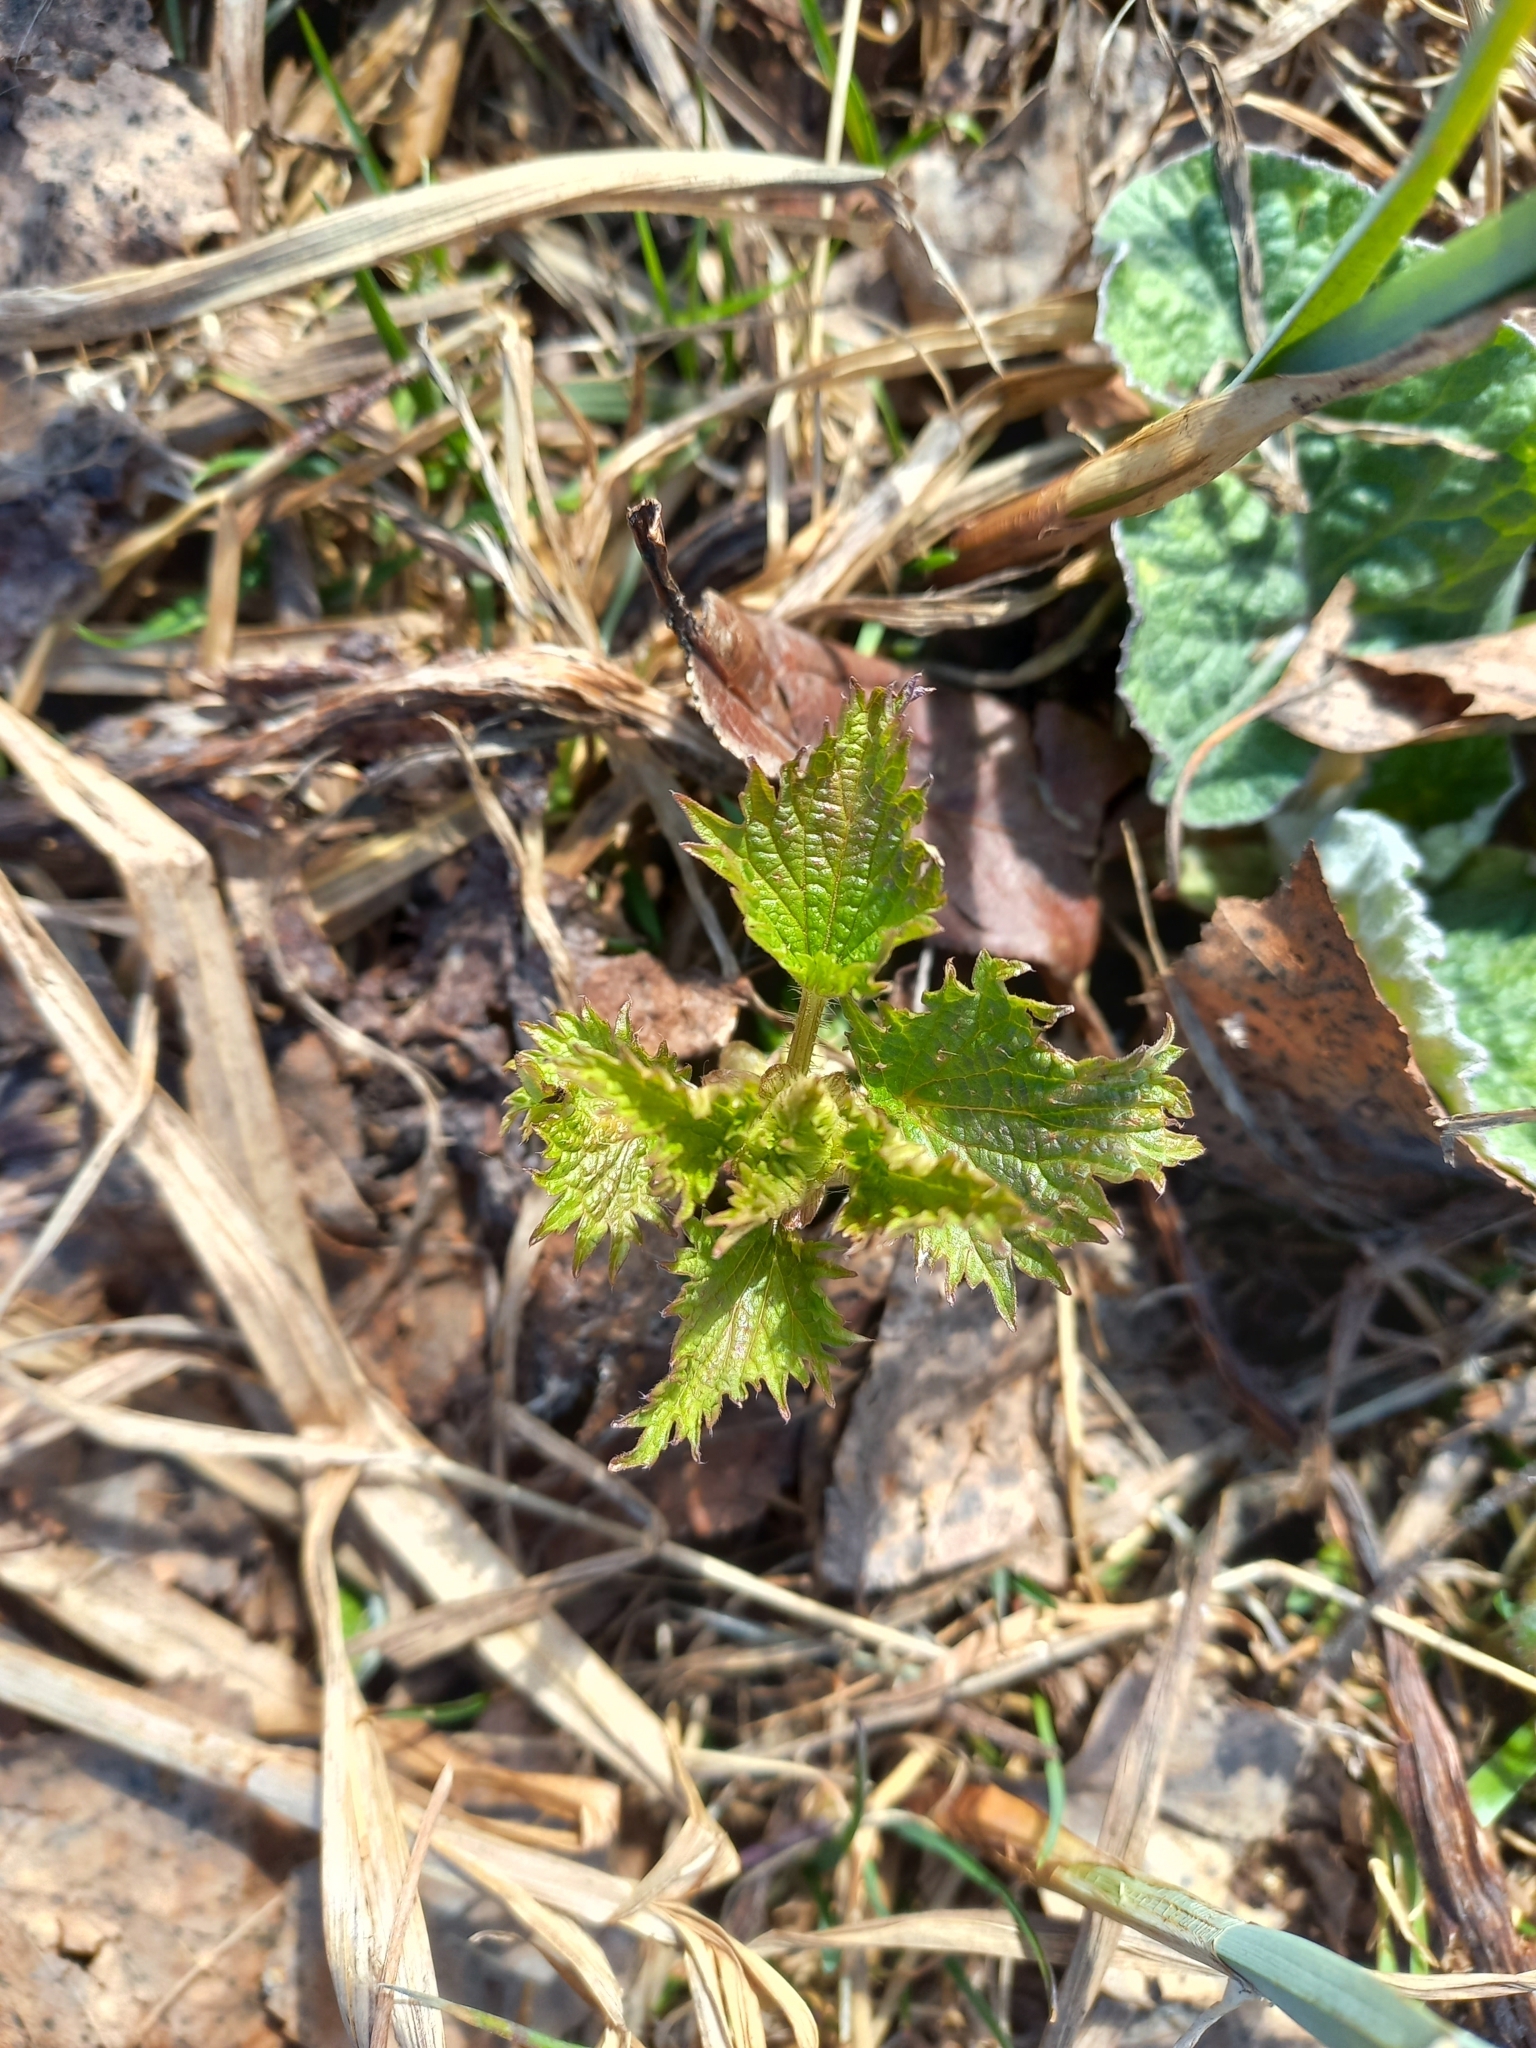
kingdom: Plantae
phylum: Tracheophyta
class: Magnoliopsida
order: Rosales
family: Urticaceae
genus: Urtica
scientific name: Urtica dioica
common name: Common nettle
